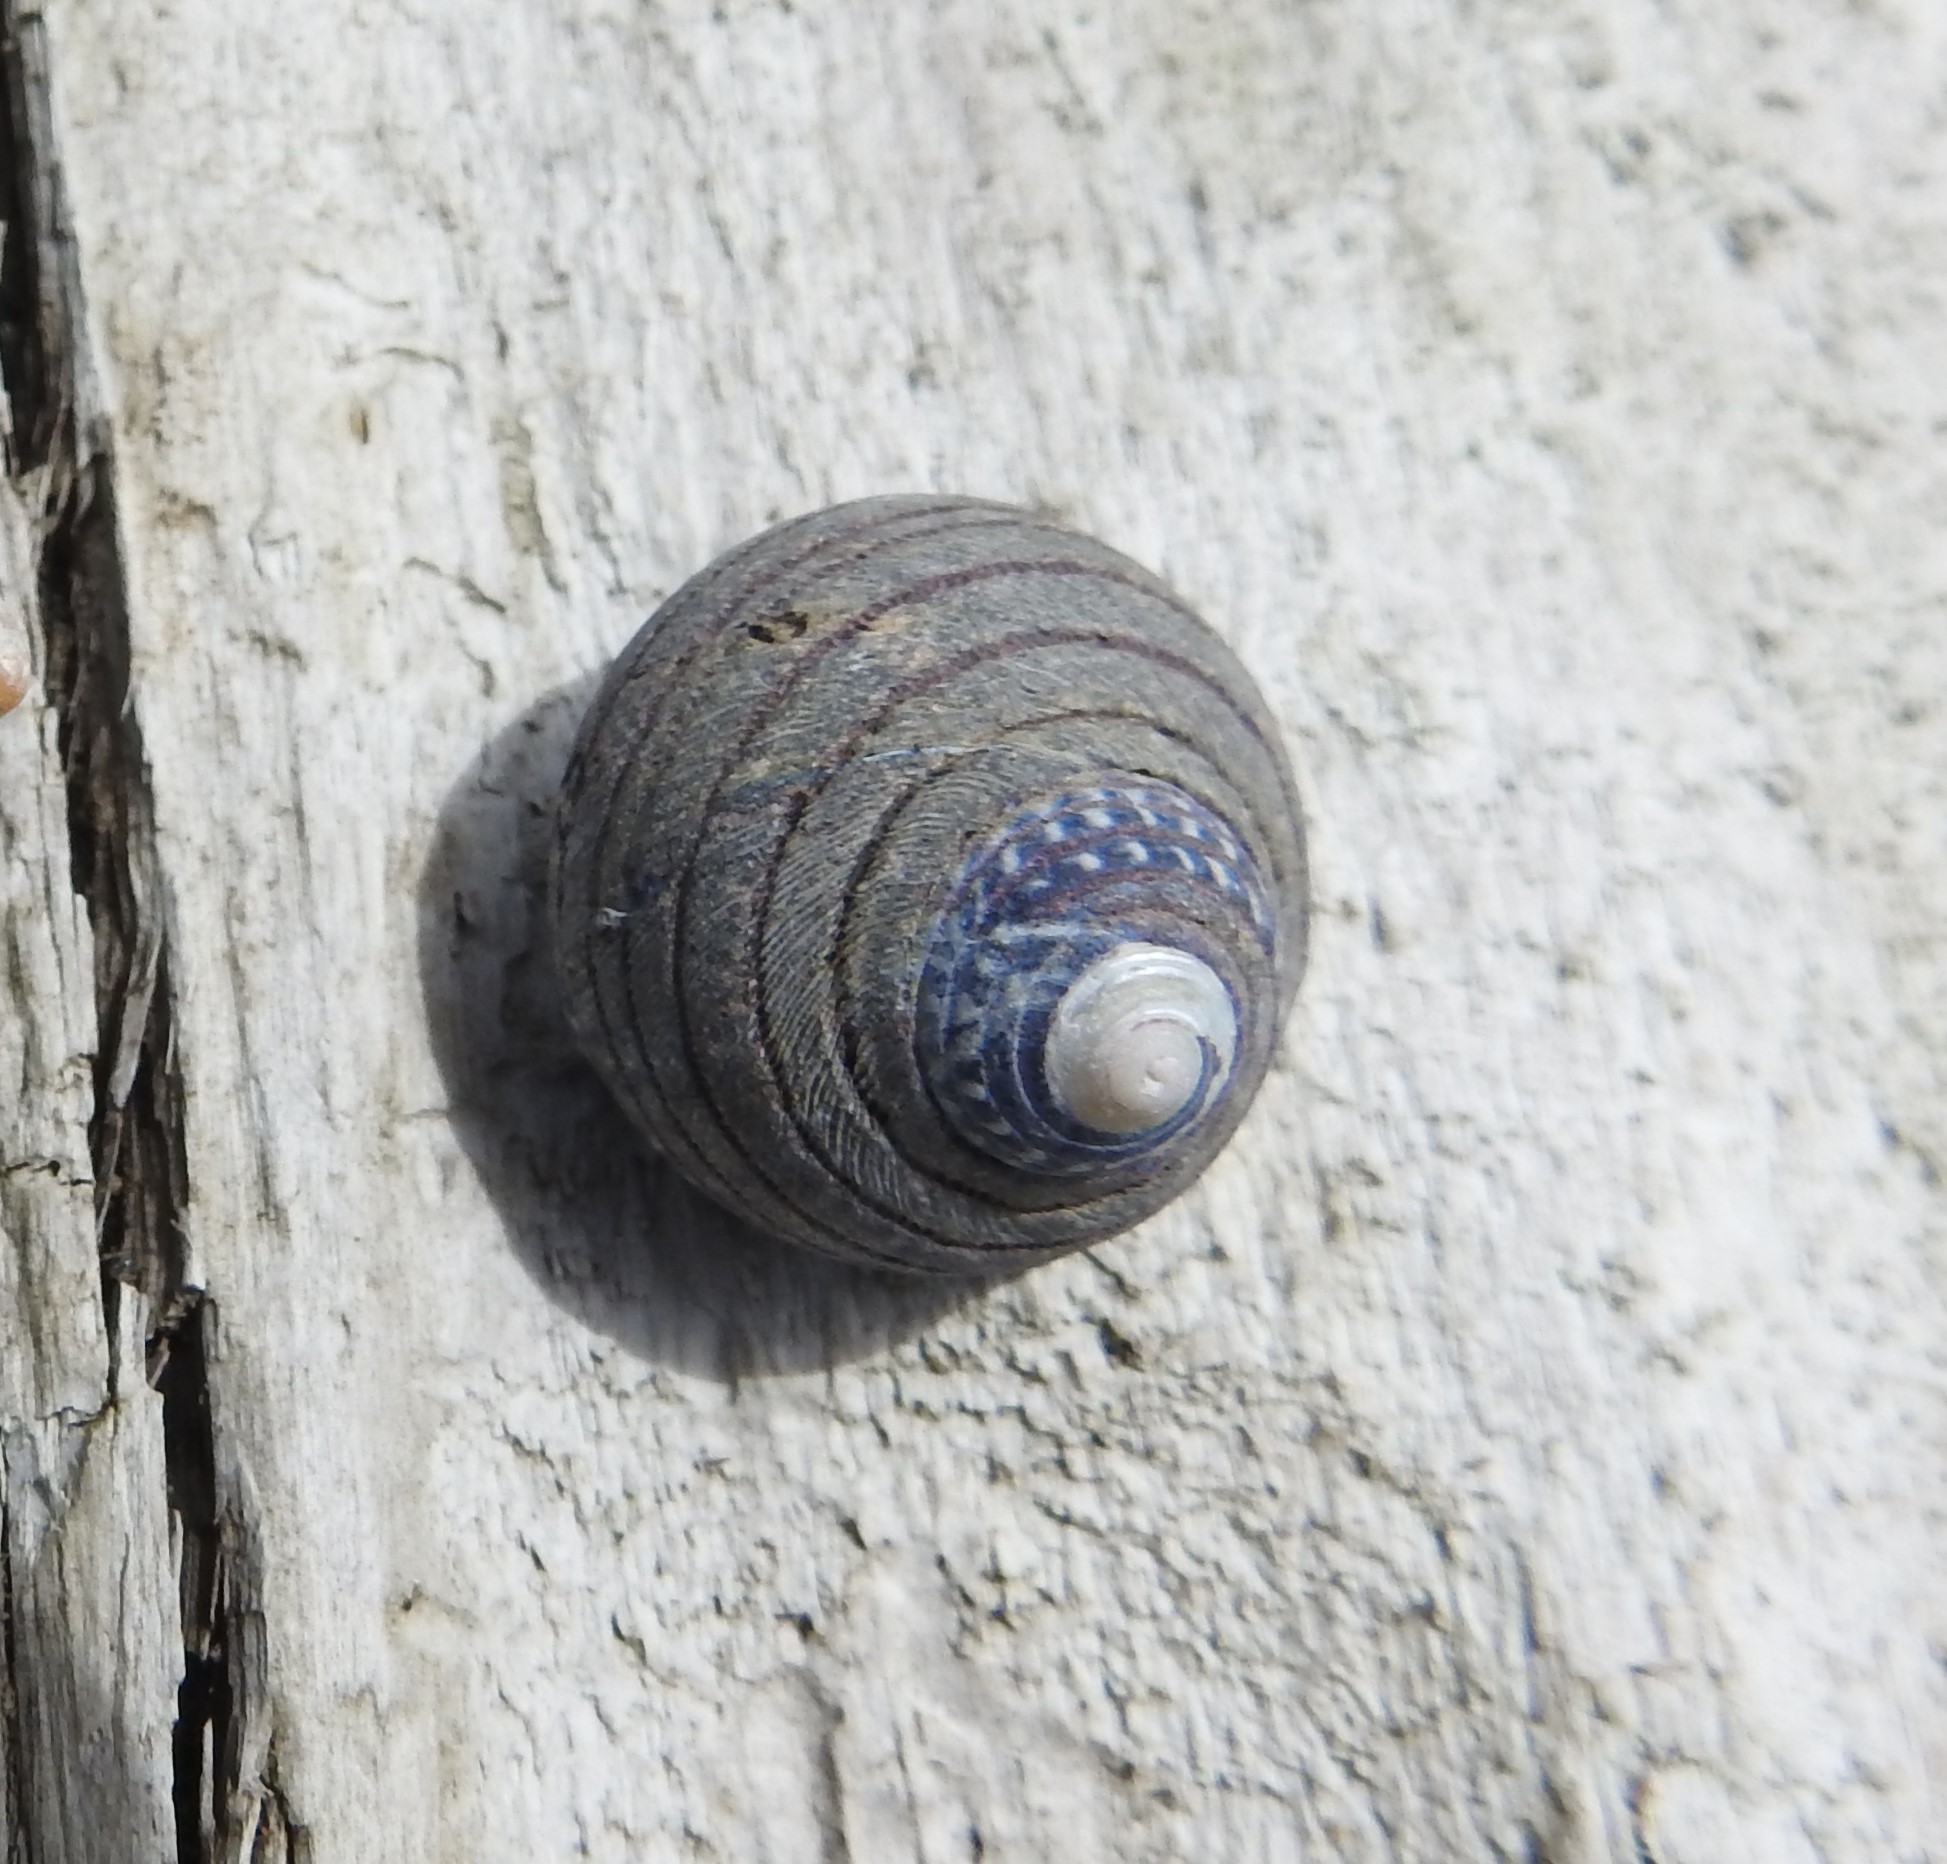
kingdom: Animalia
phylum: Mollusca
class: Gastropoda
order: Trochida
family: Trochidae
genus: Diloma
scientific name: Diloma aethiops
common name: Scorched monodont
